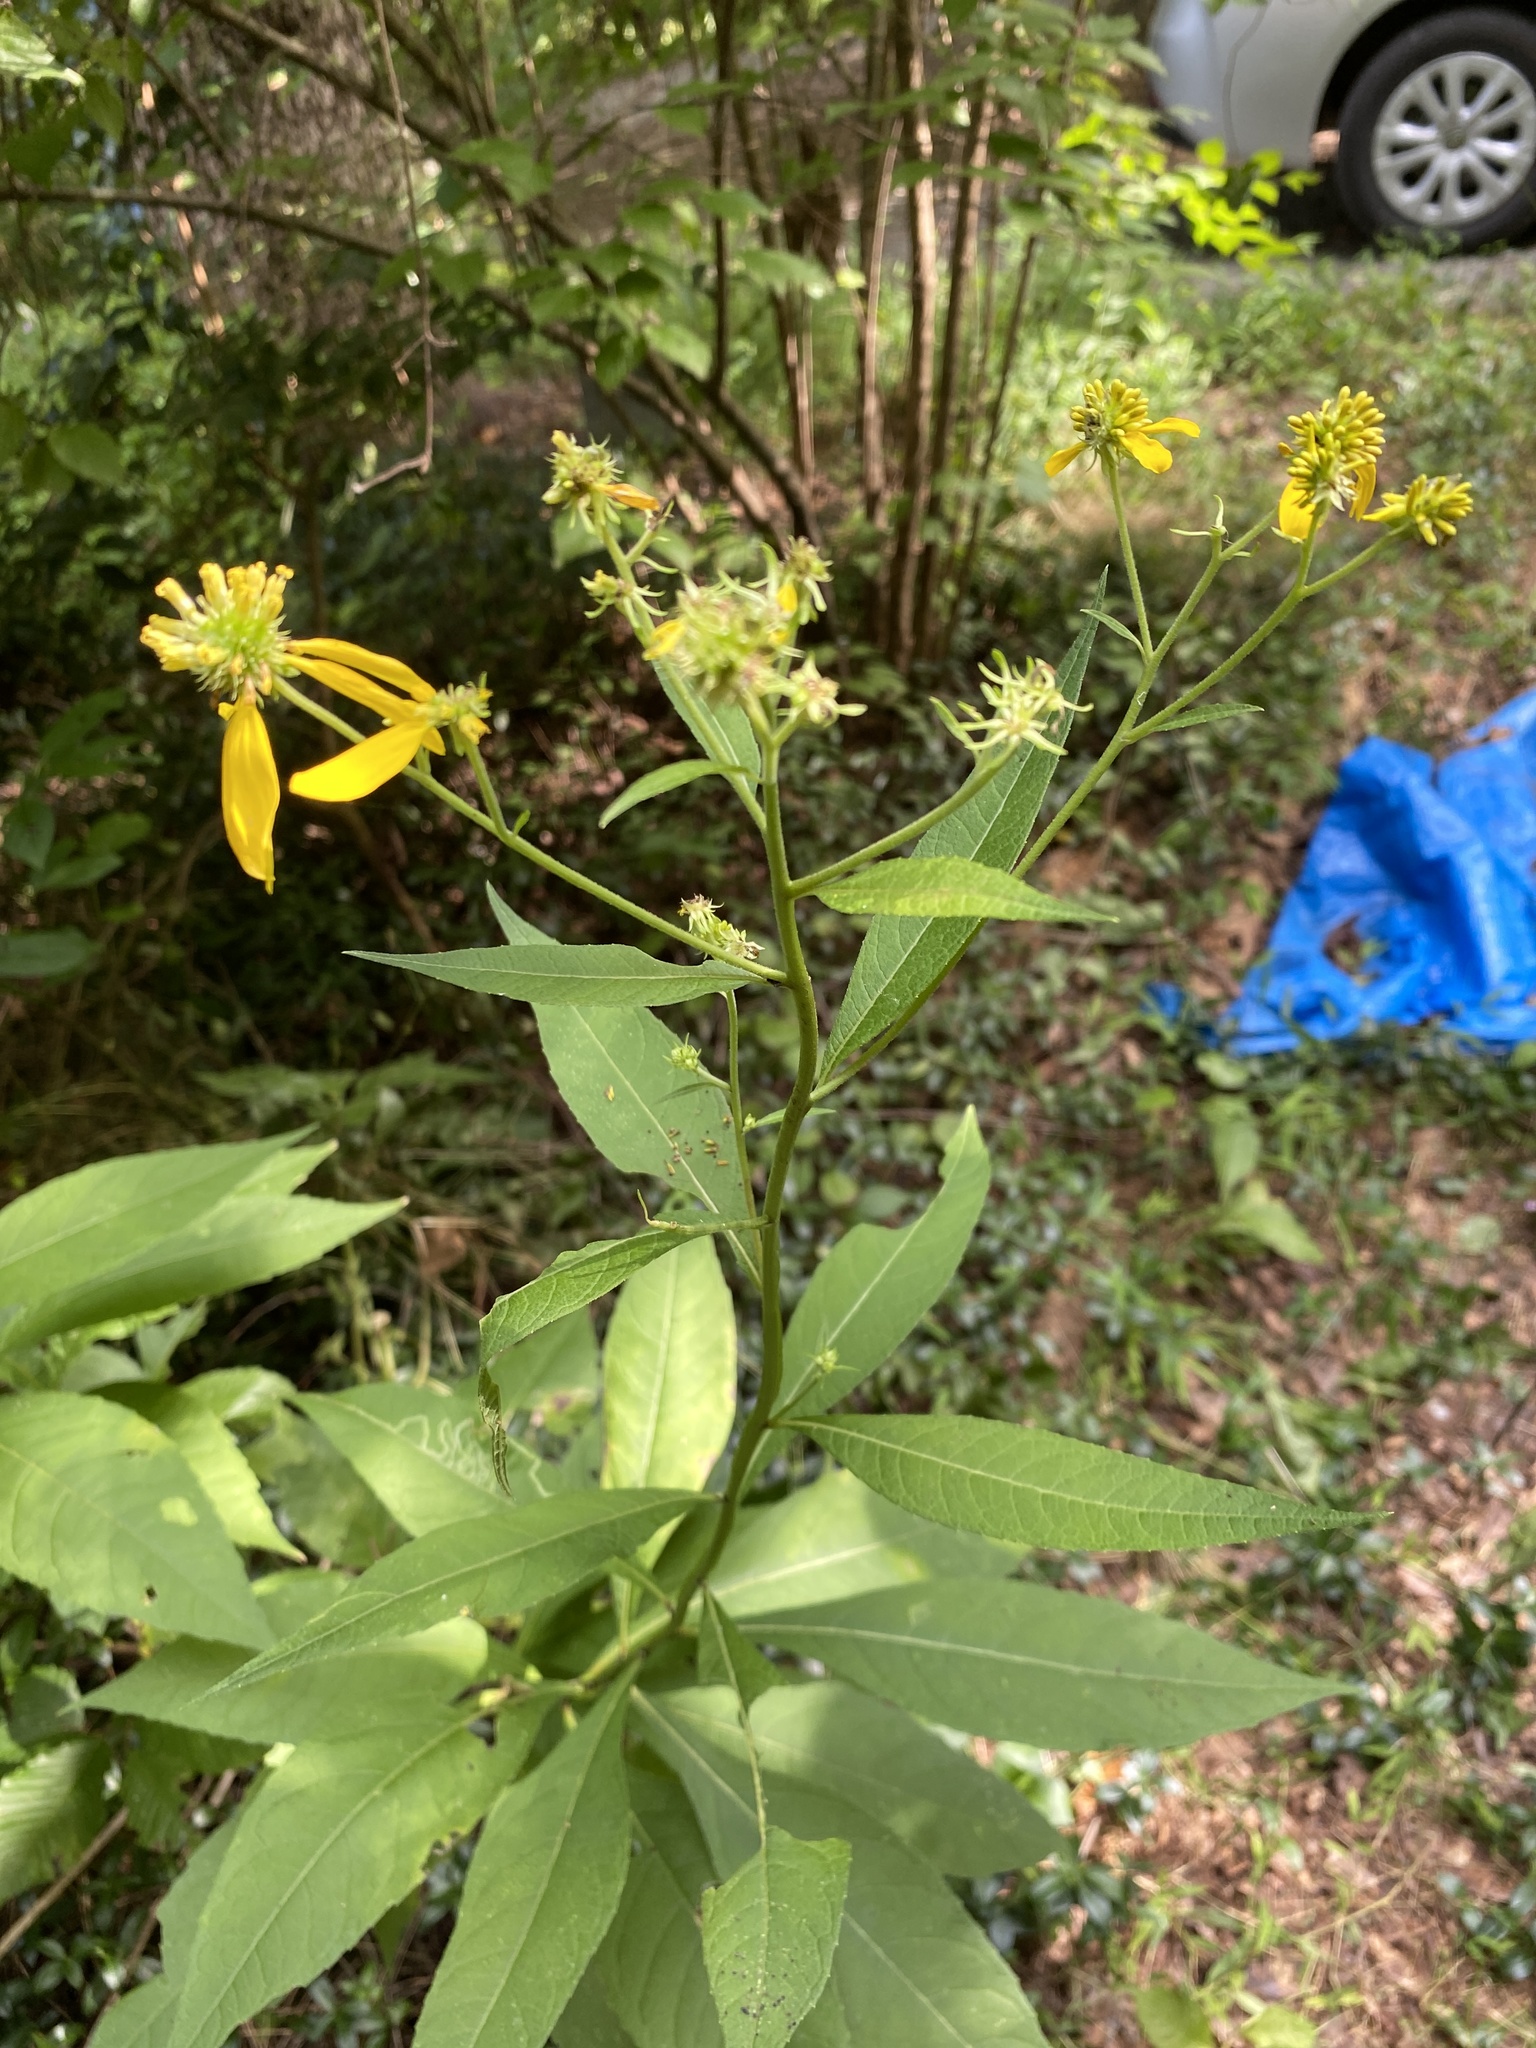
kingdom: Plantae
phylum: Tracheophyta
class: Magnoliopsida
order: Asterales
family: Asteraceae
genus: Verbesina
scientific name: Verbesina alternifolia
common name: Wingstem
